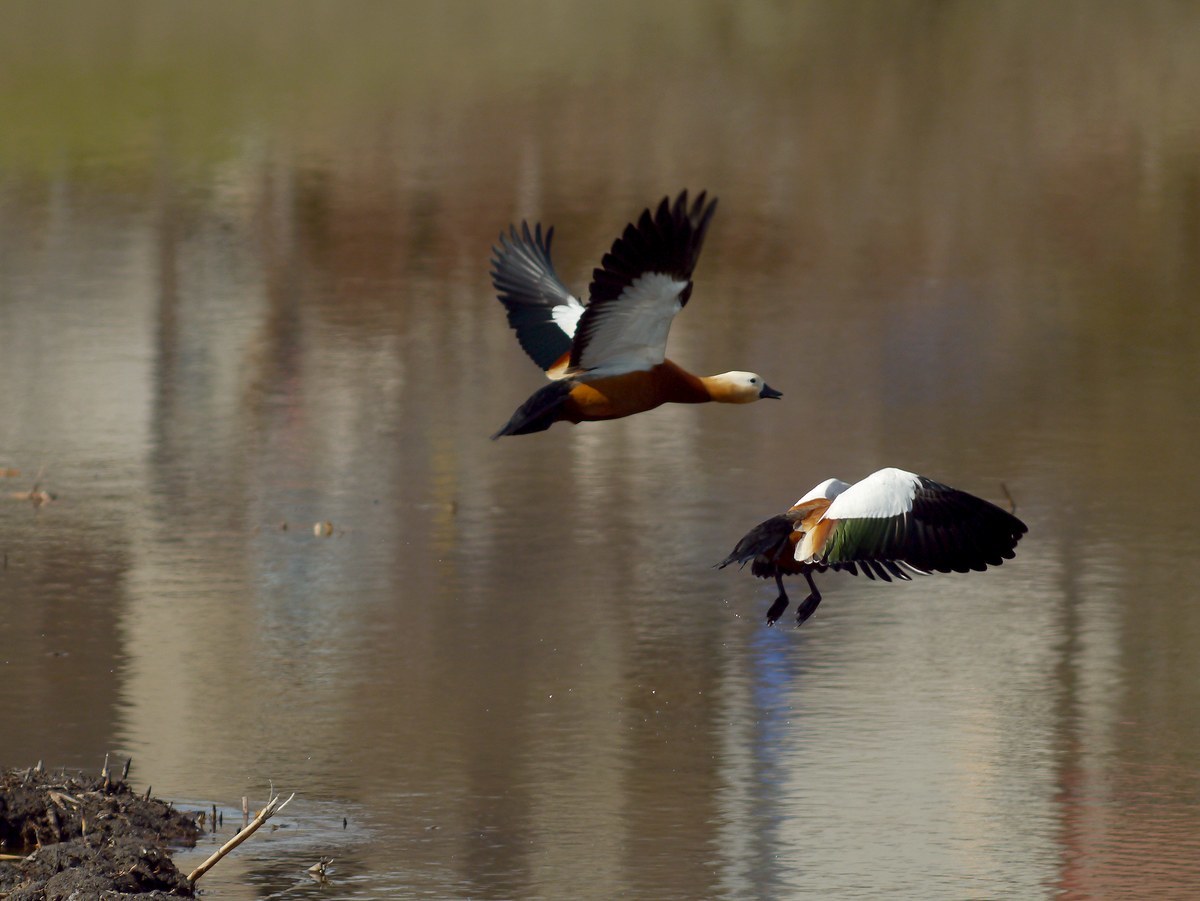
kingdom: Animalia
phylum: Chordata
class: Aves
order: Anseriformes
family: Anatidae
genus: Tadorna
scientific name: Tadorna ferruginea
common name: Ruddy shelduck
